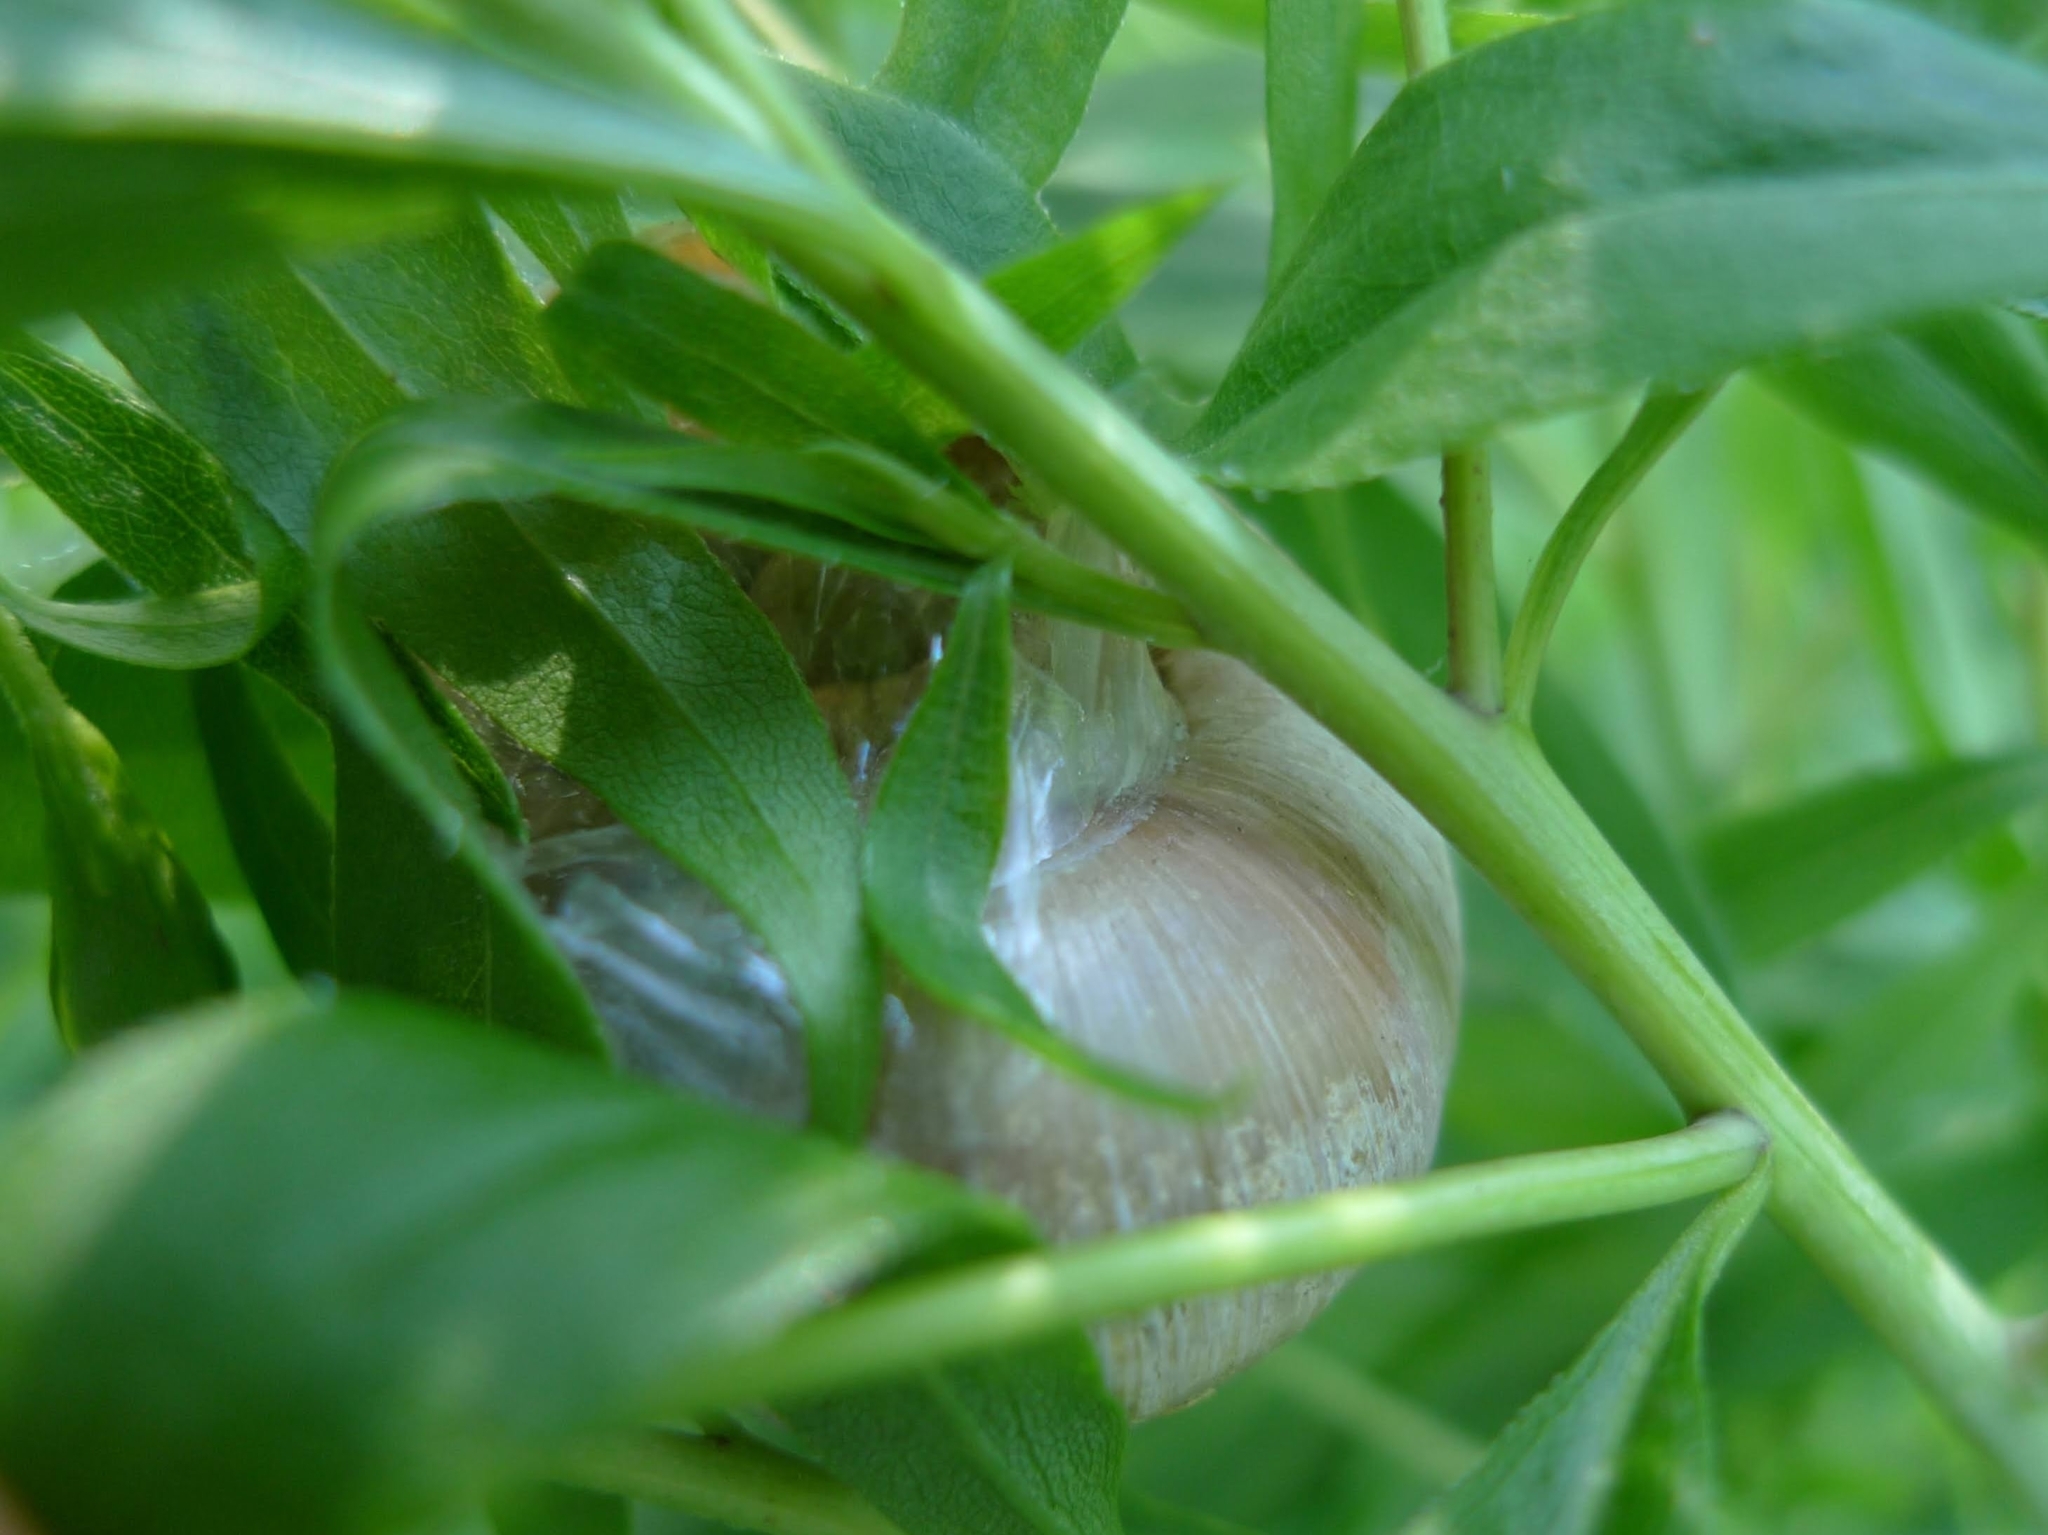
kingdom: Animalia
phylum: Mollusca
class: Gastropoda
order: Stylommatophora
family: Helicidae
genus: Helix
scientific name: Helix pomatia
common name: Roman snail
